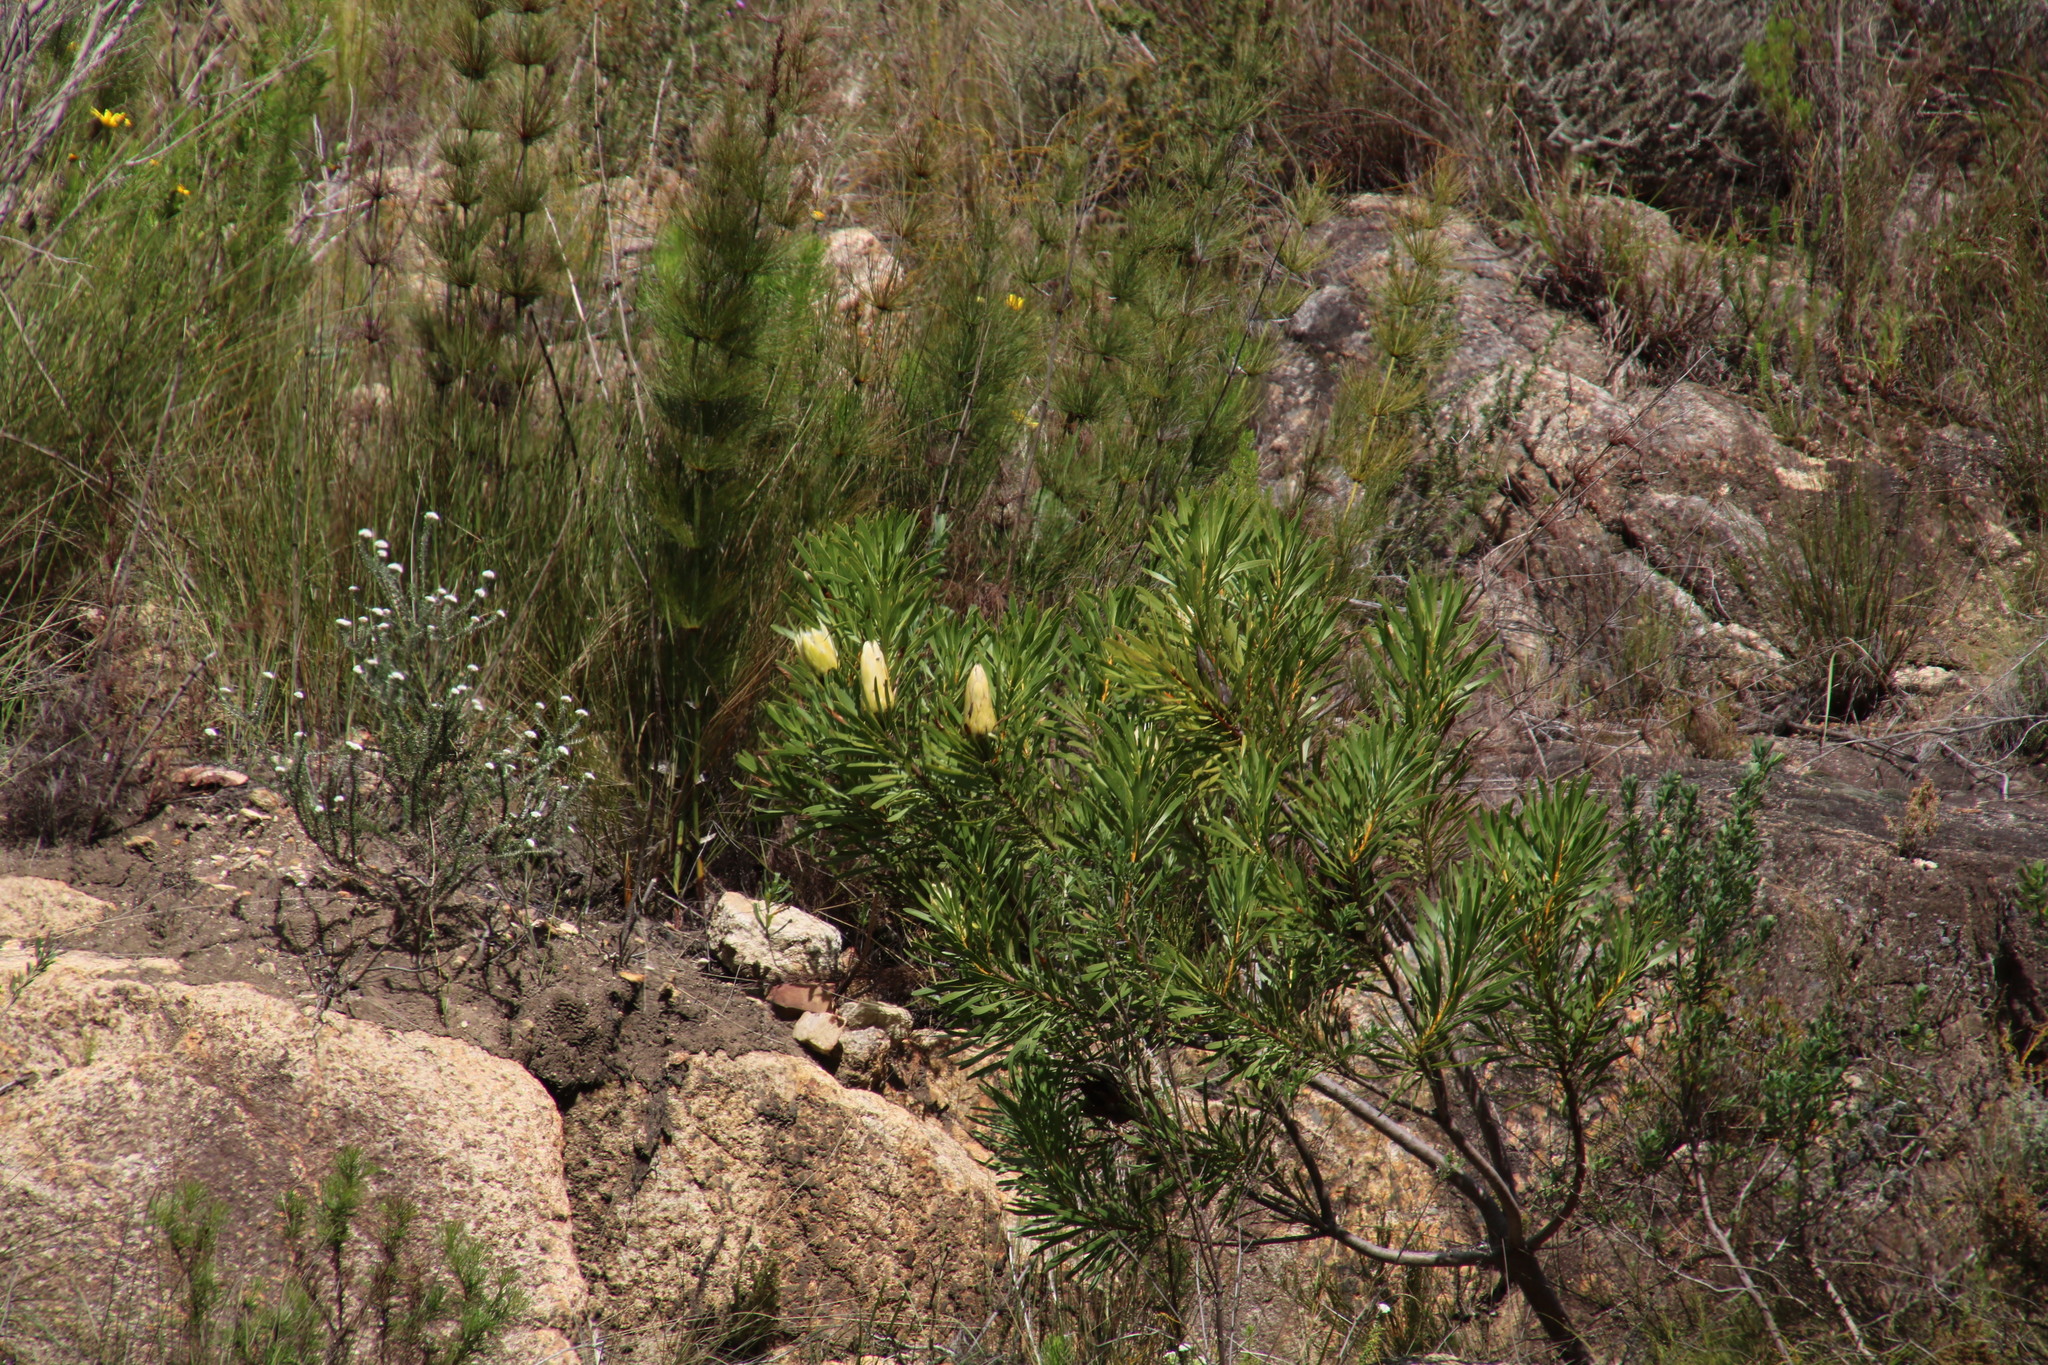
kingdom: Plantae
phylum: Tracheophyta
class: Magnoliopsida
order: Proteales
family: Proteaceae
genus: Protea
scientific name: Protea repens
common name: Sugarbush
